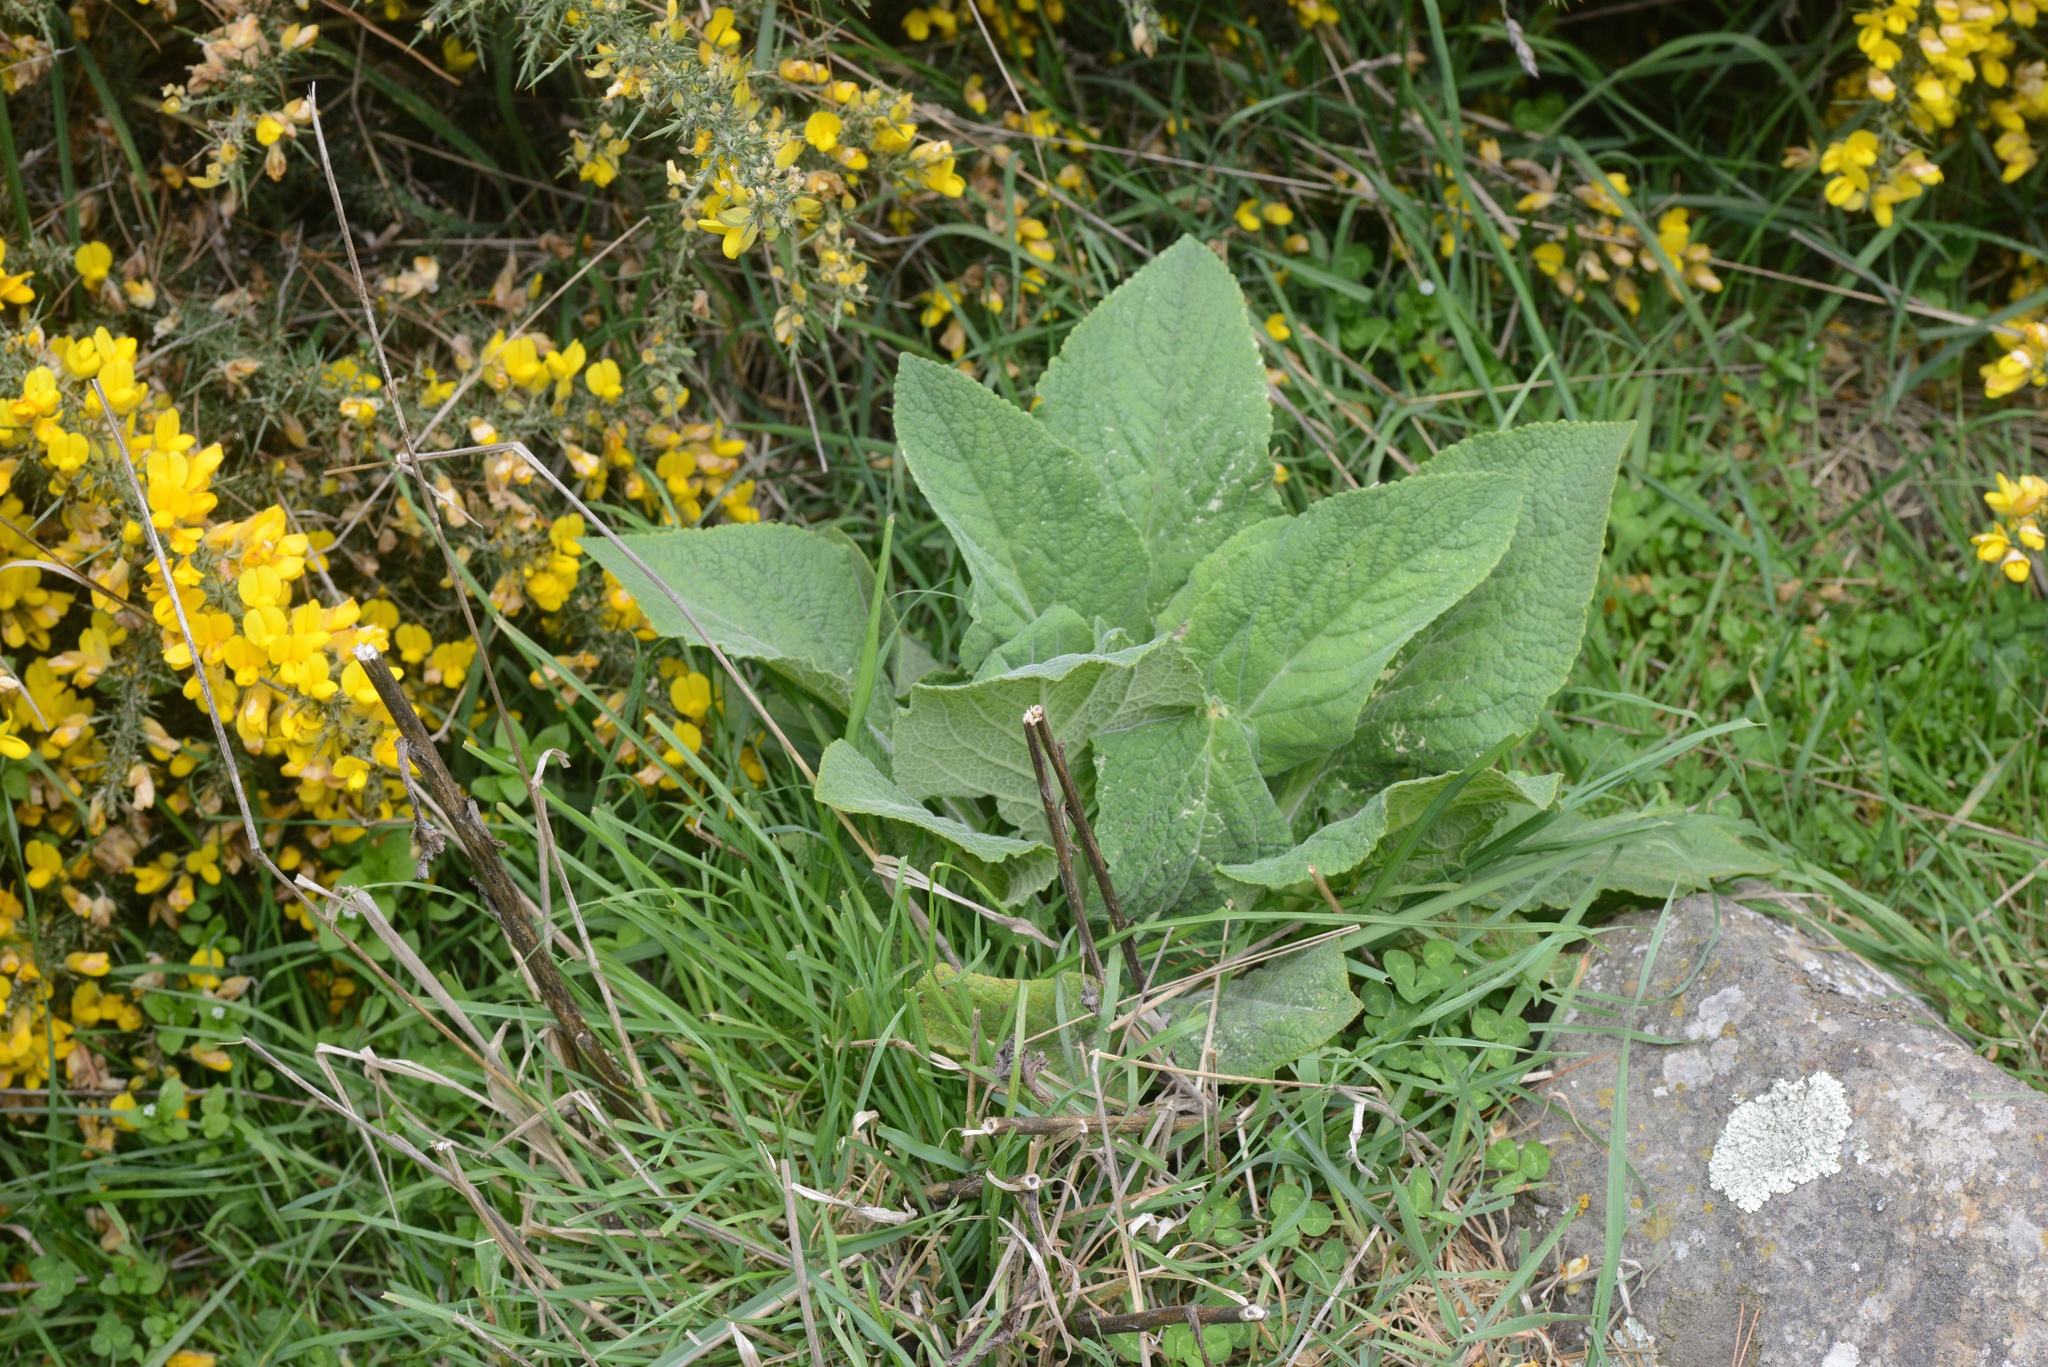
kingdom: Plantae
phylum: Tracheophyta
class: Magnoliopsida
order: Lamiales
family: Plantaginaceae
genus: Digitalis
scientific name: Digitalis purpurea
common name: Foxglove
